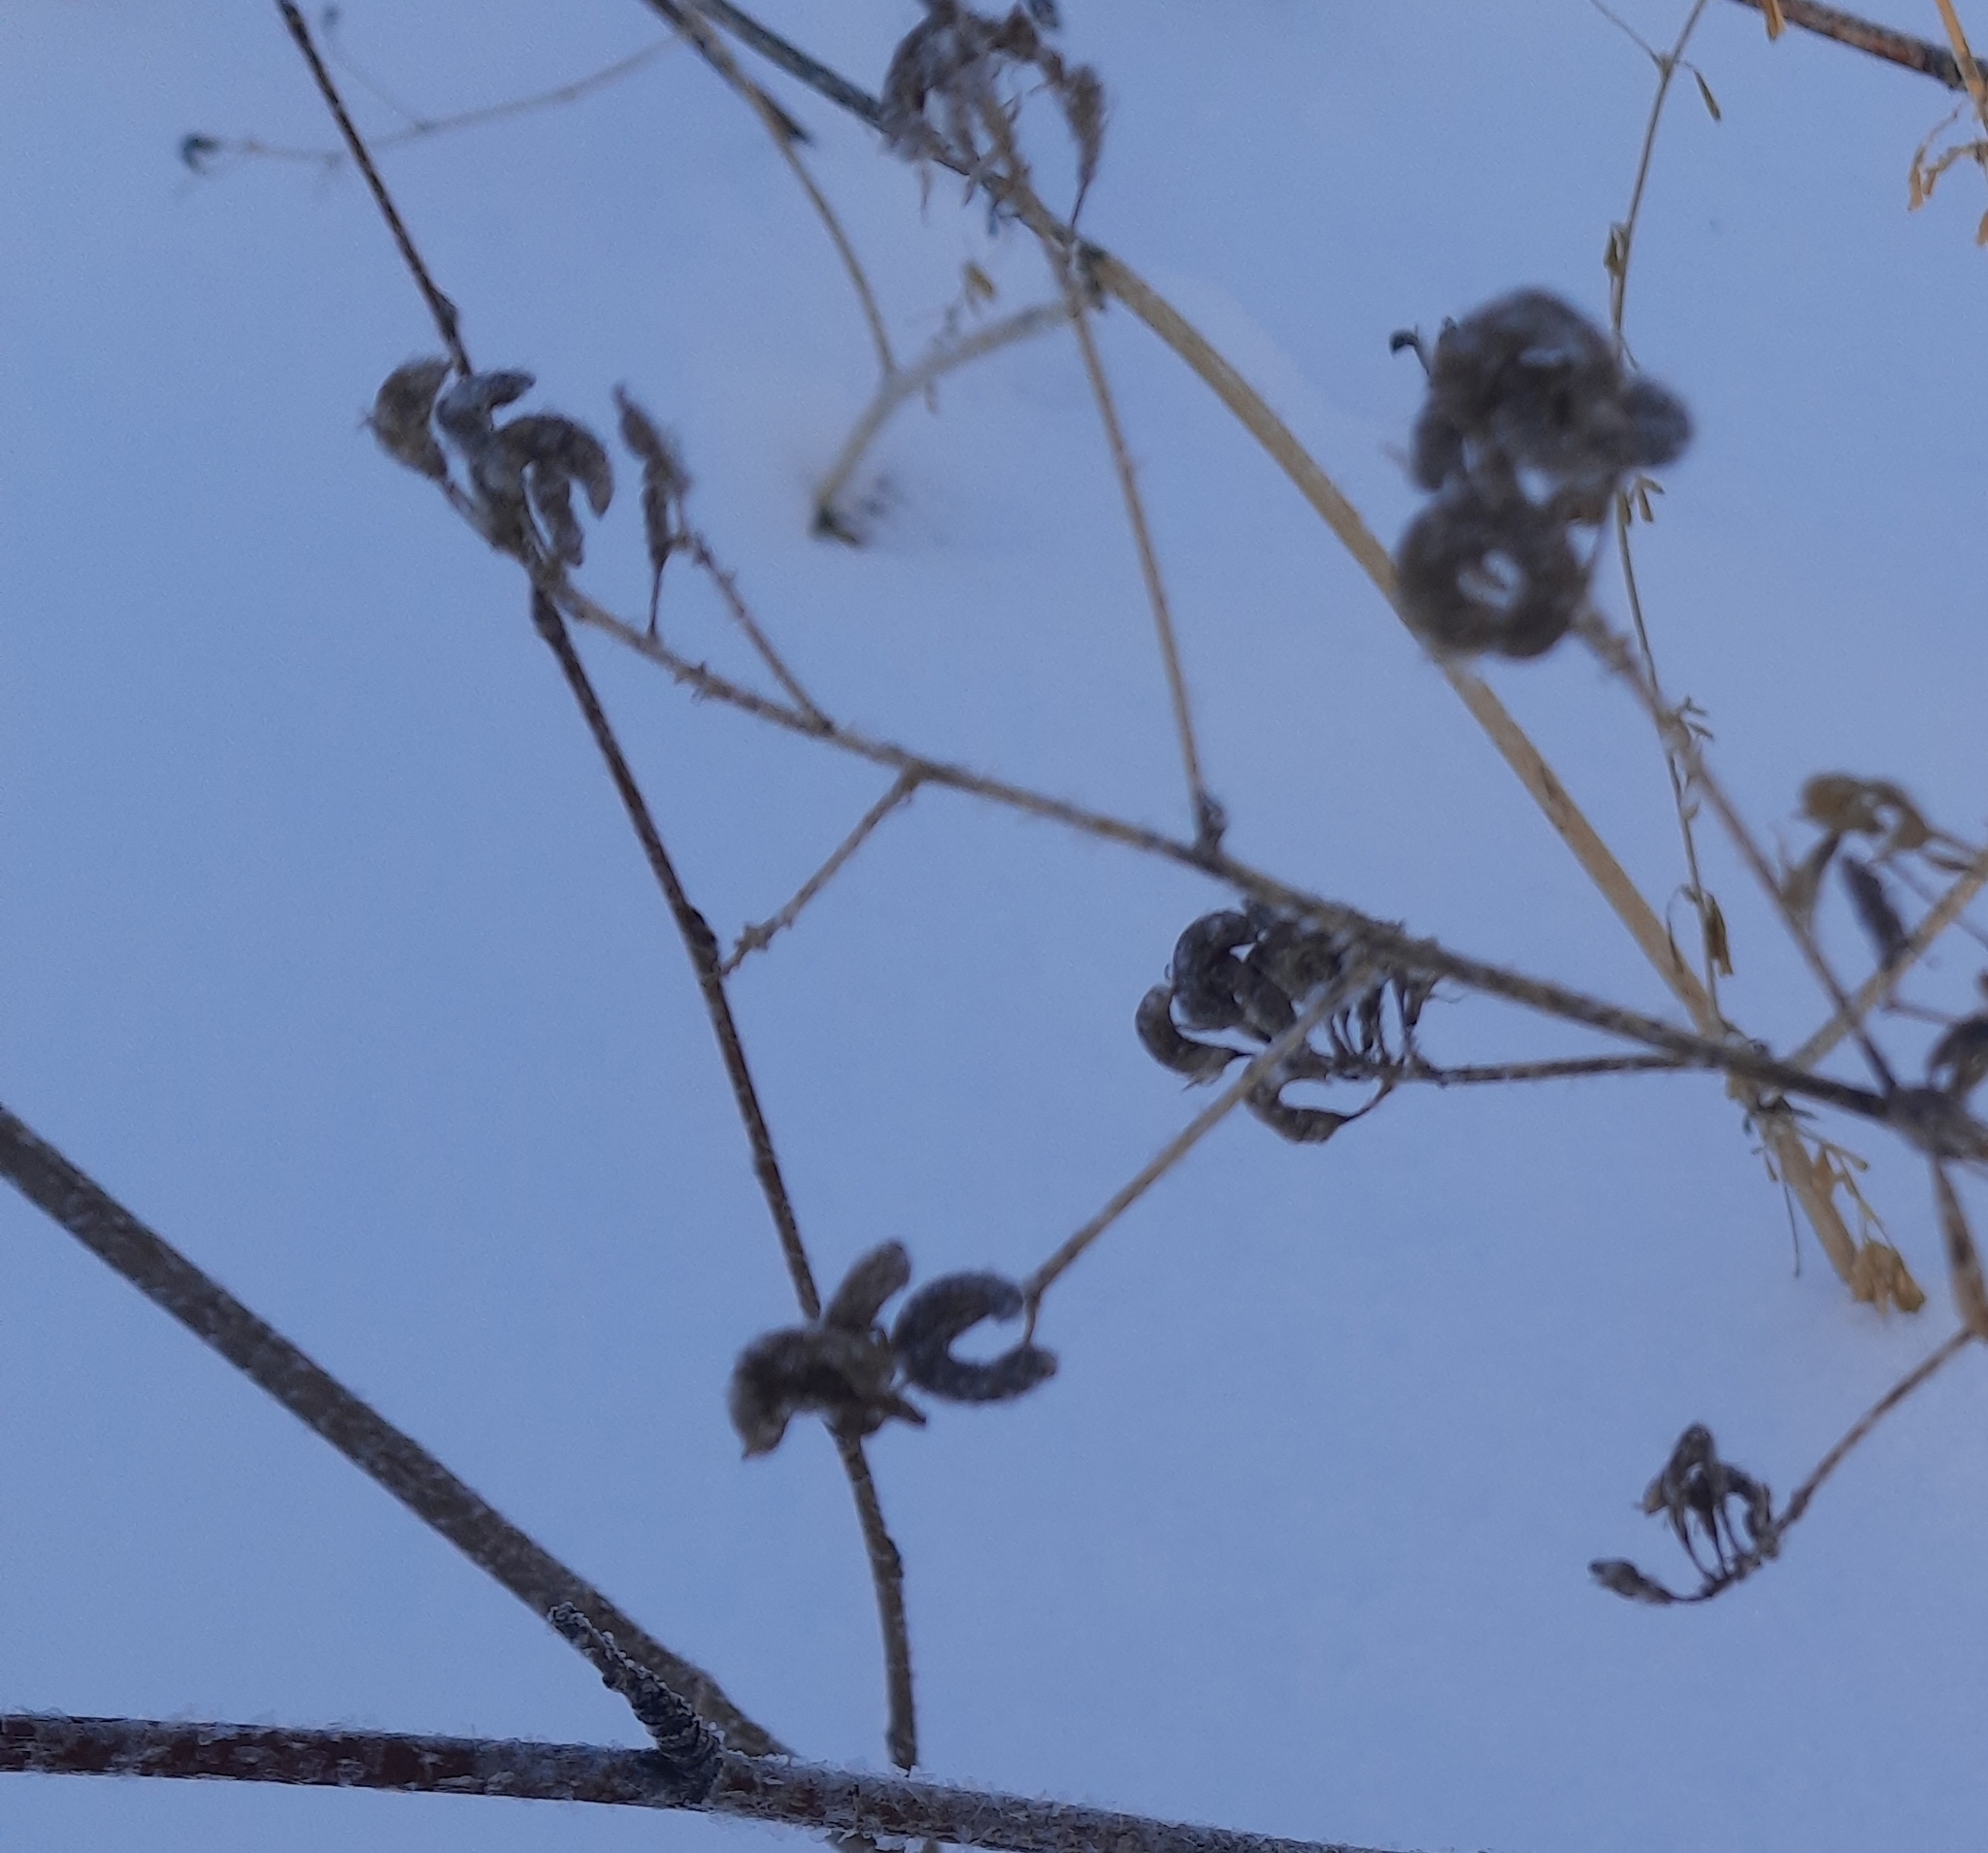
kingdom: Plantae
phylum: Tracheophyta
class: Magnoliopsida
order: Fabales
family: Fabaceae
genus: Medicago
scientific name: Medicago falcata
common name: Sickle medick
